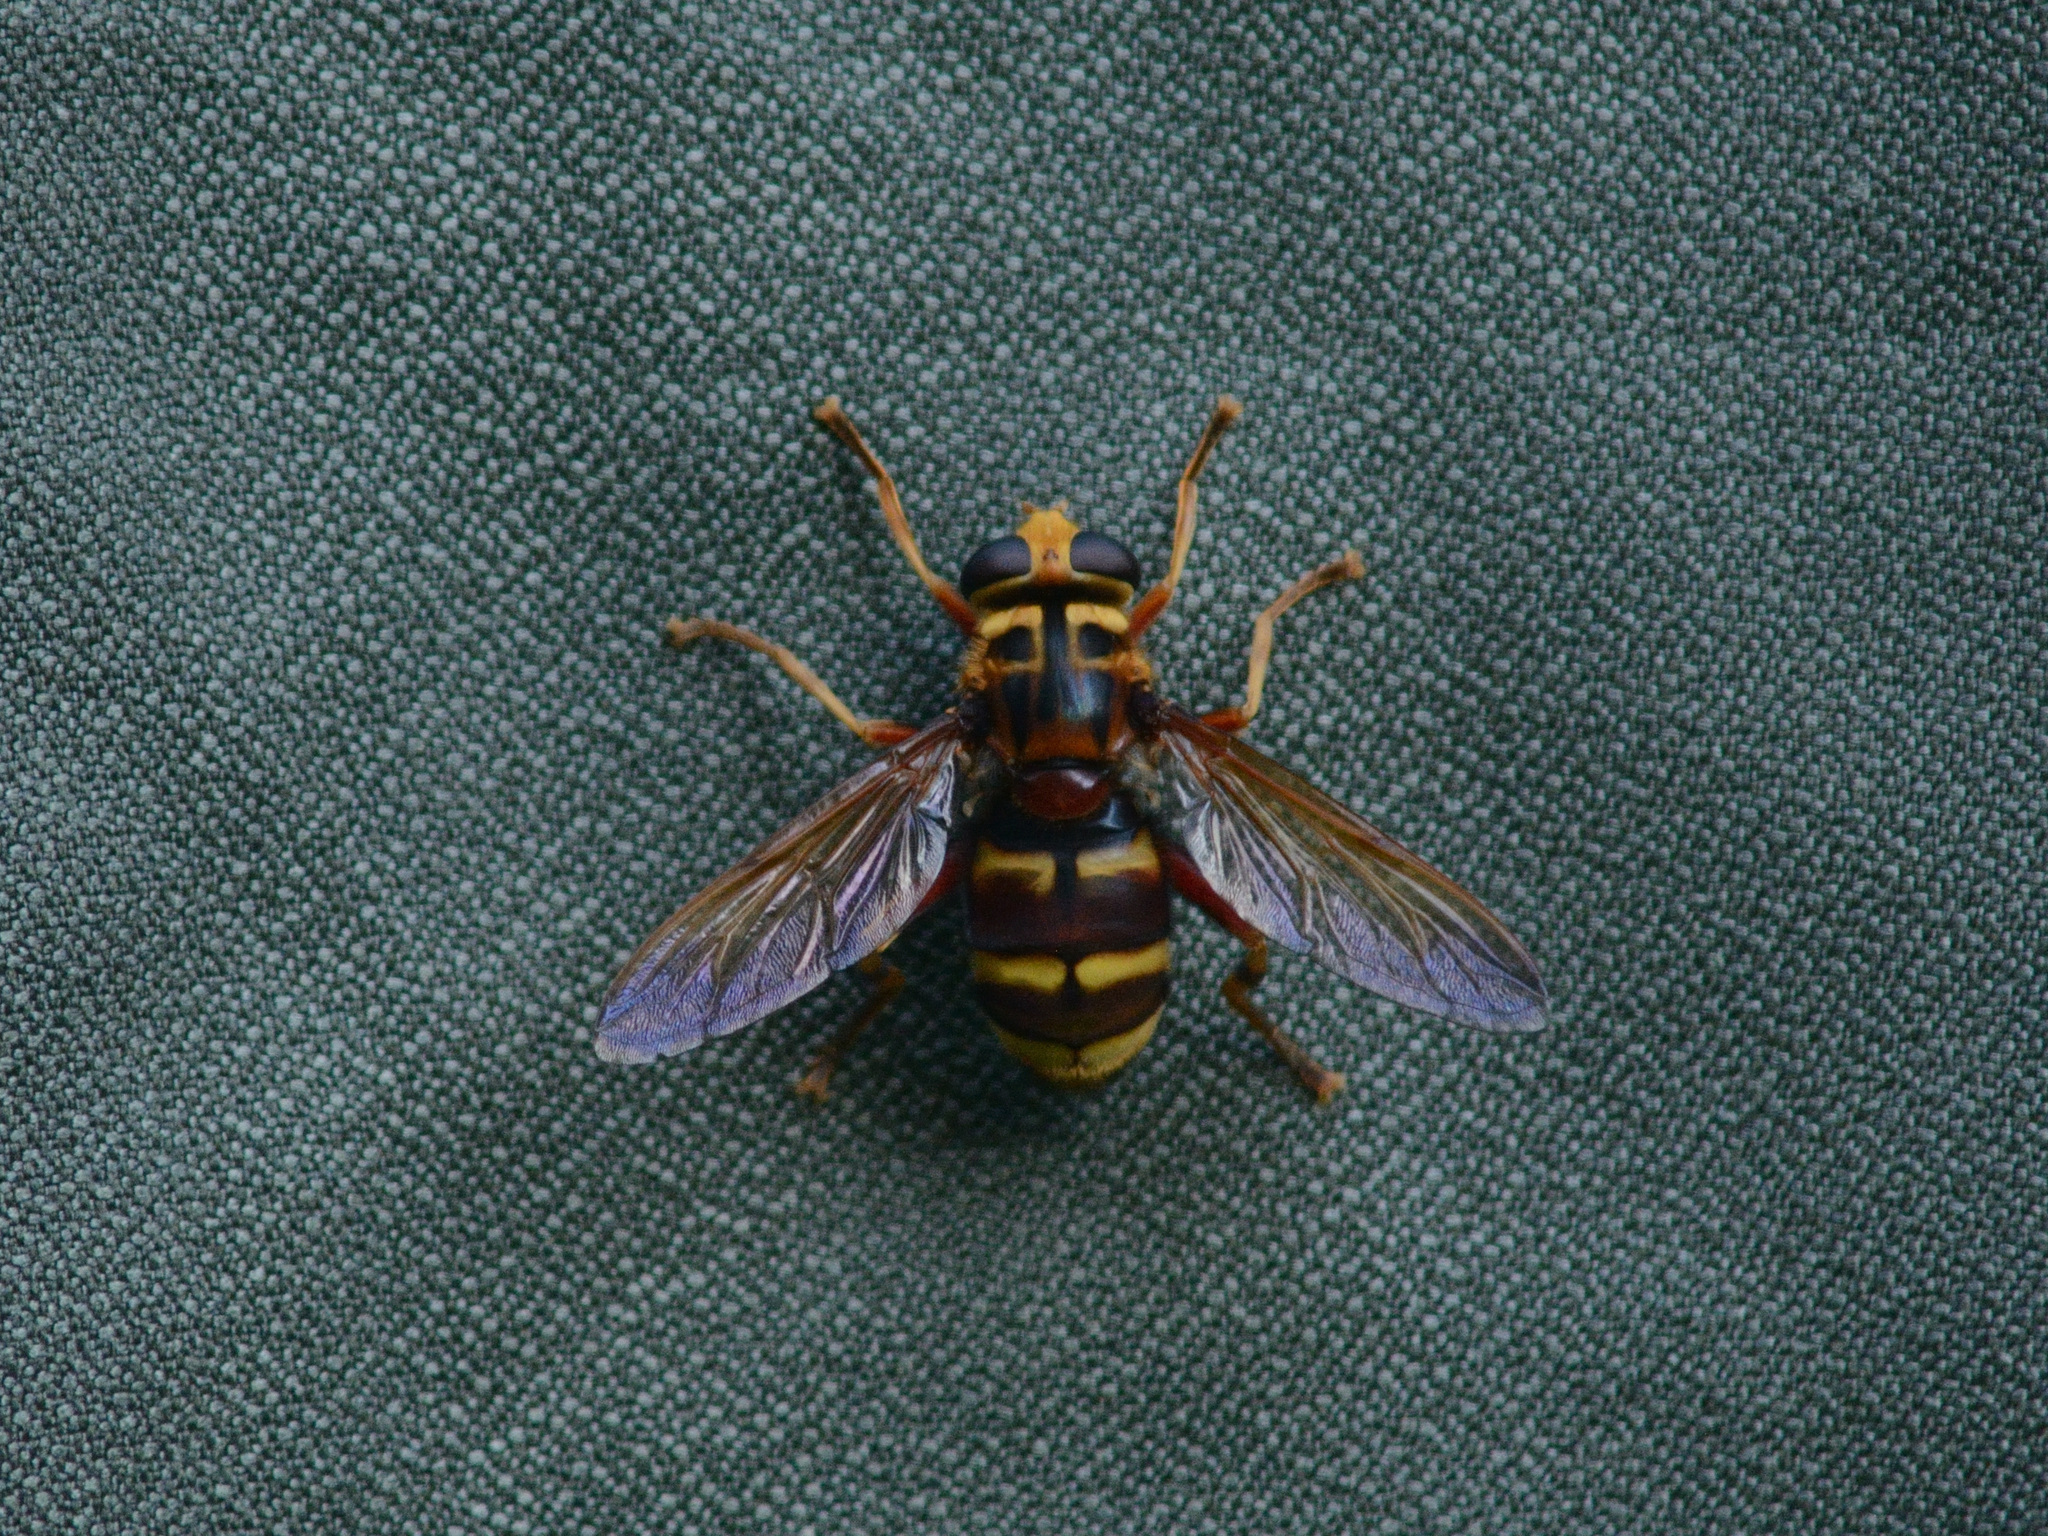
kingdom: Animalia
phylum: Arthropoda
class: Insecta
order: Diptera
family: Syrphidae
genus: Milesia
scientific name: Milesia crabroniformis
